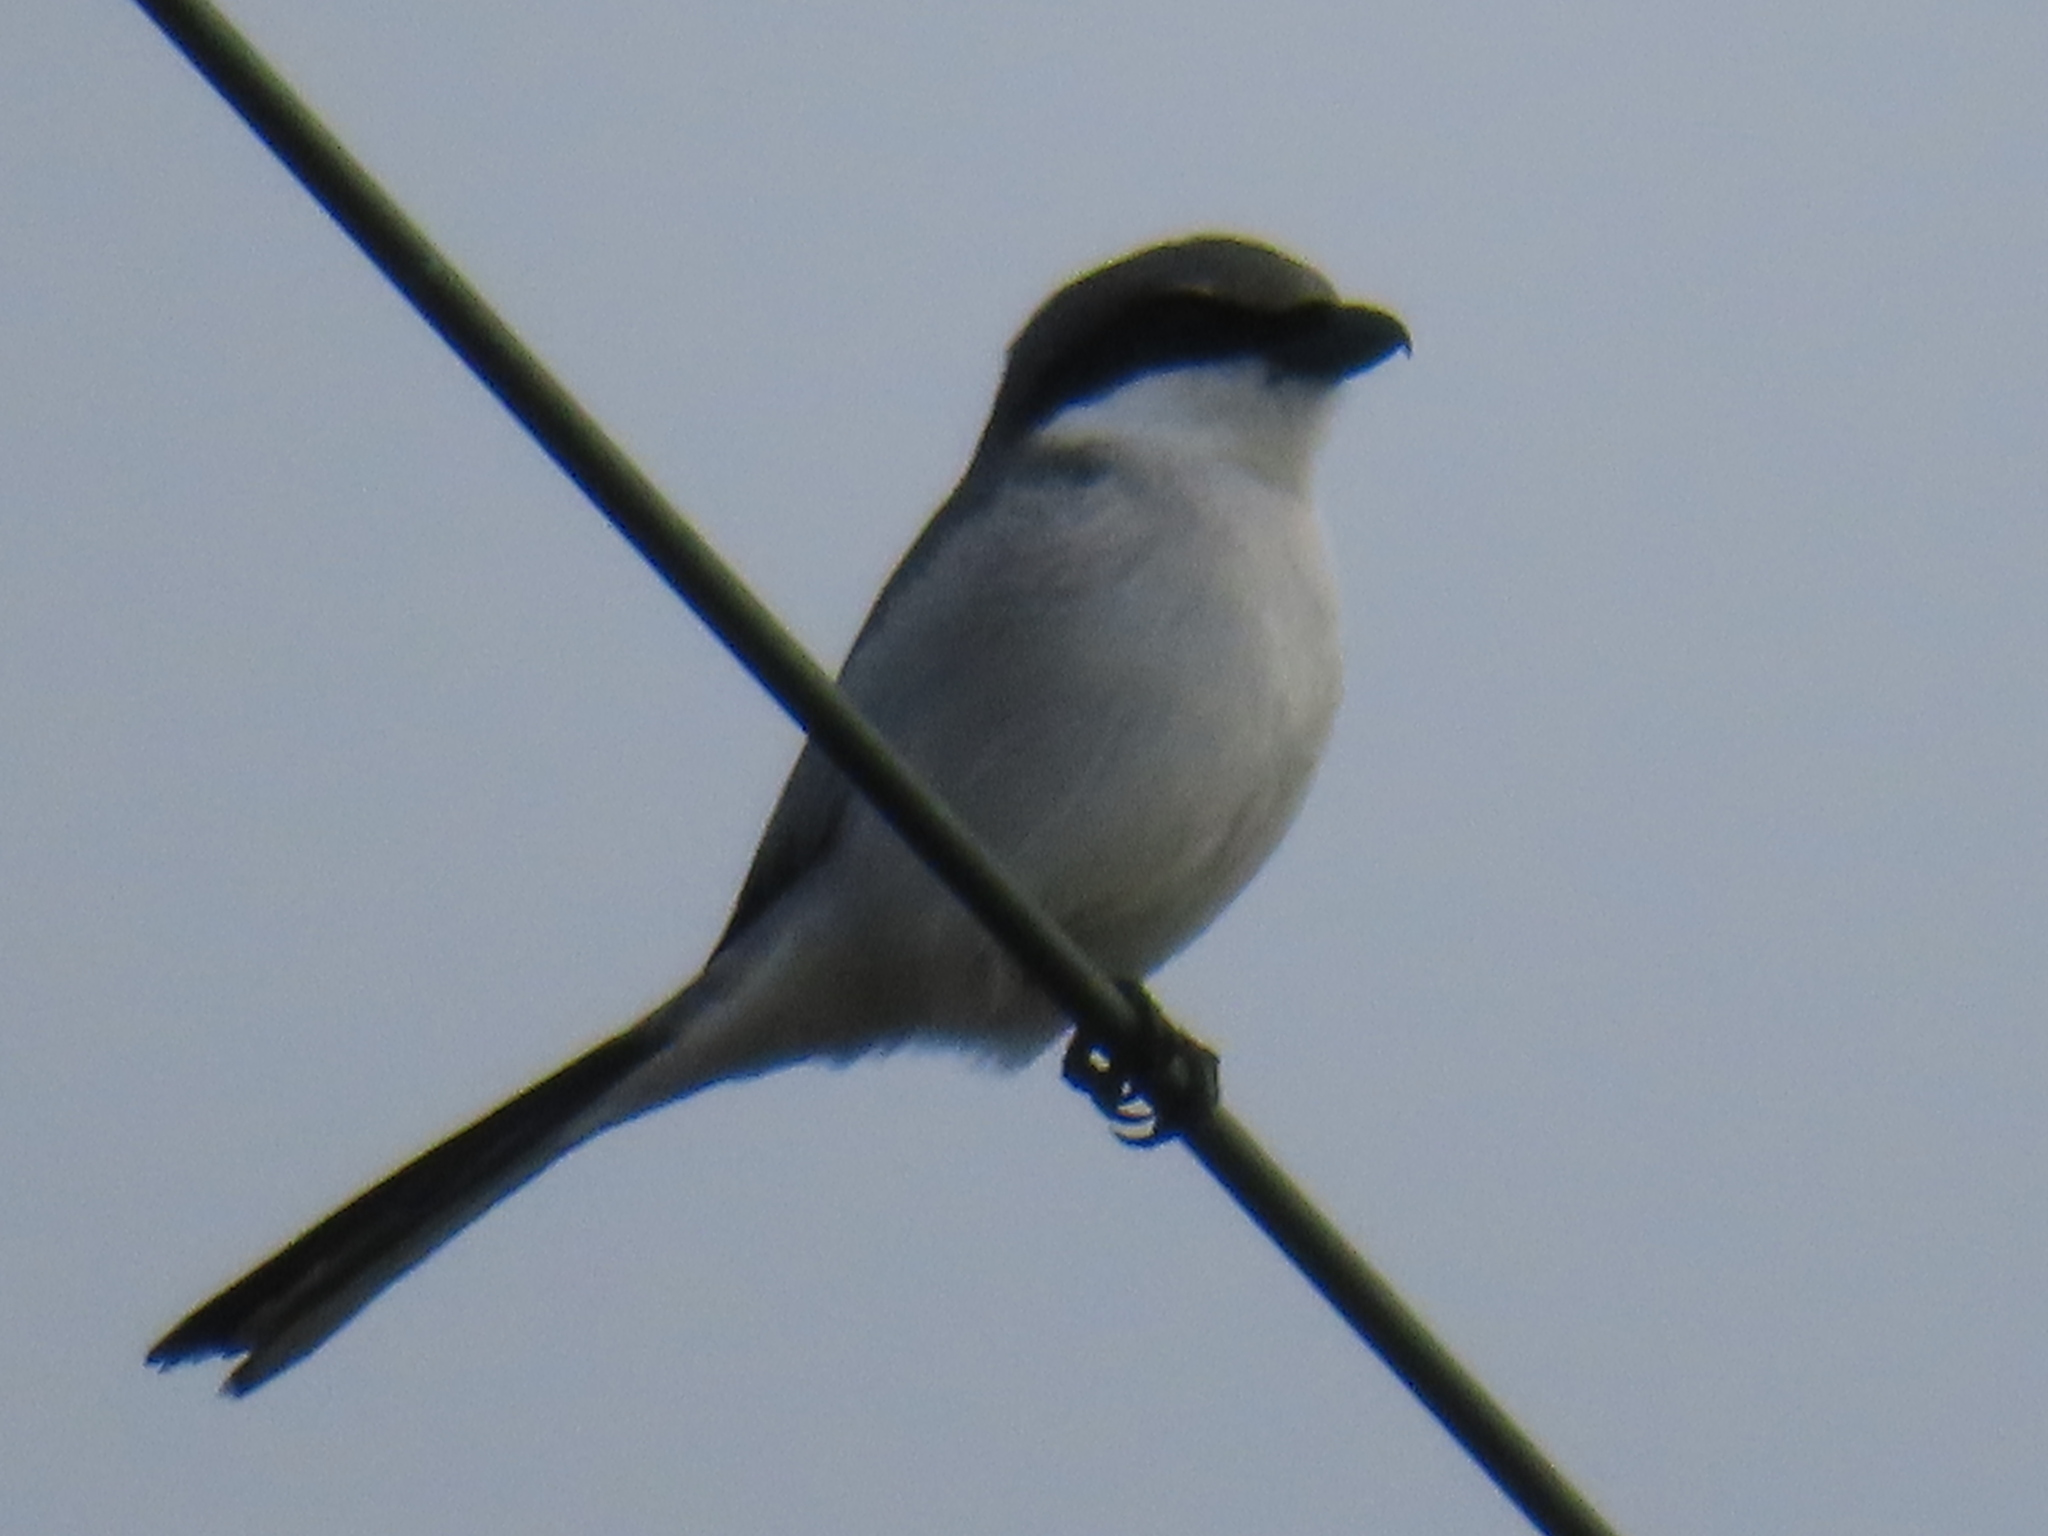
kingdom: Animalia
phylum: Chordata
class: Aves
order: Passeriformes
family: Laniidae
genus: Lanius
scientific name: Lanius ludovicianus
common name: Loggerhead shrike
